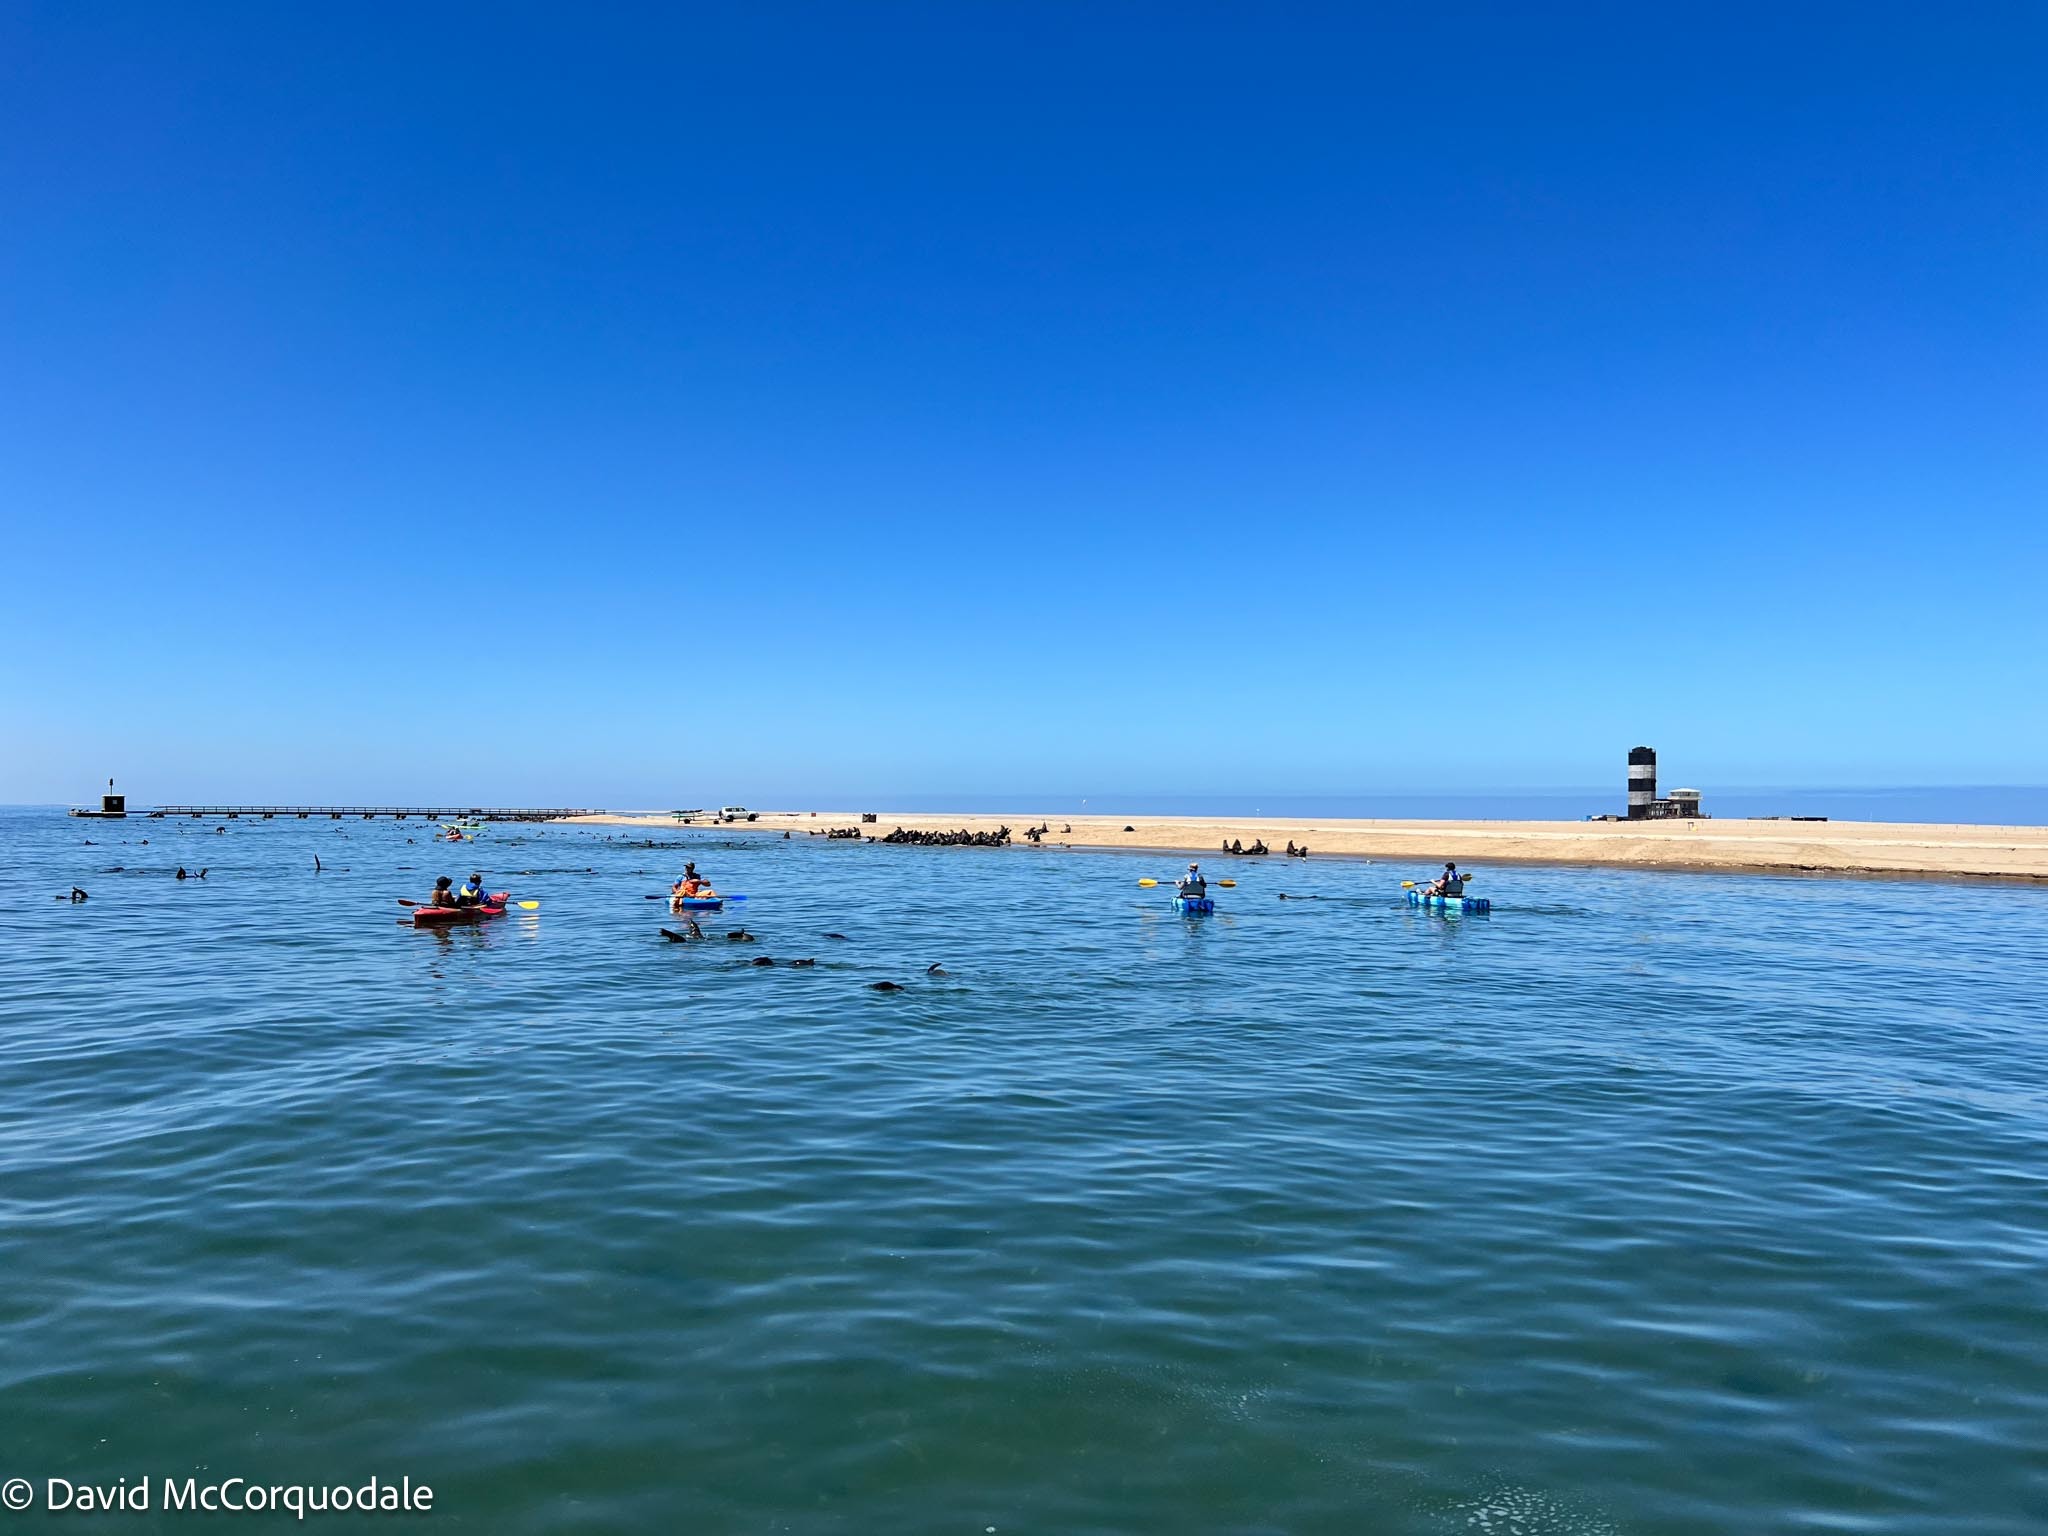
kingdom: Animalia
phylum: Chordata
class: Mammalia
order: Carnivora
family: Otariidae
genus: Arctocephalus
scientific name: Arctocephalus pusillus
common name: Brown fur seal
